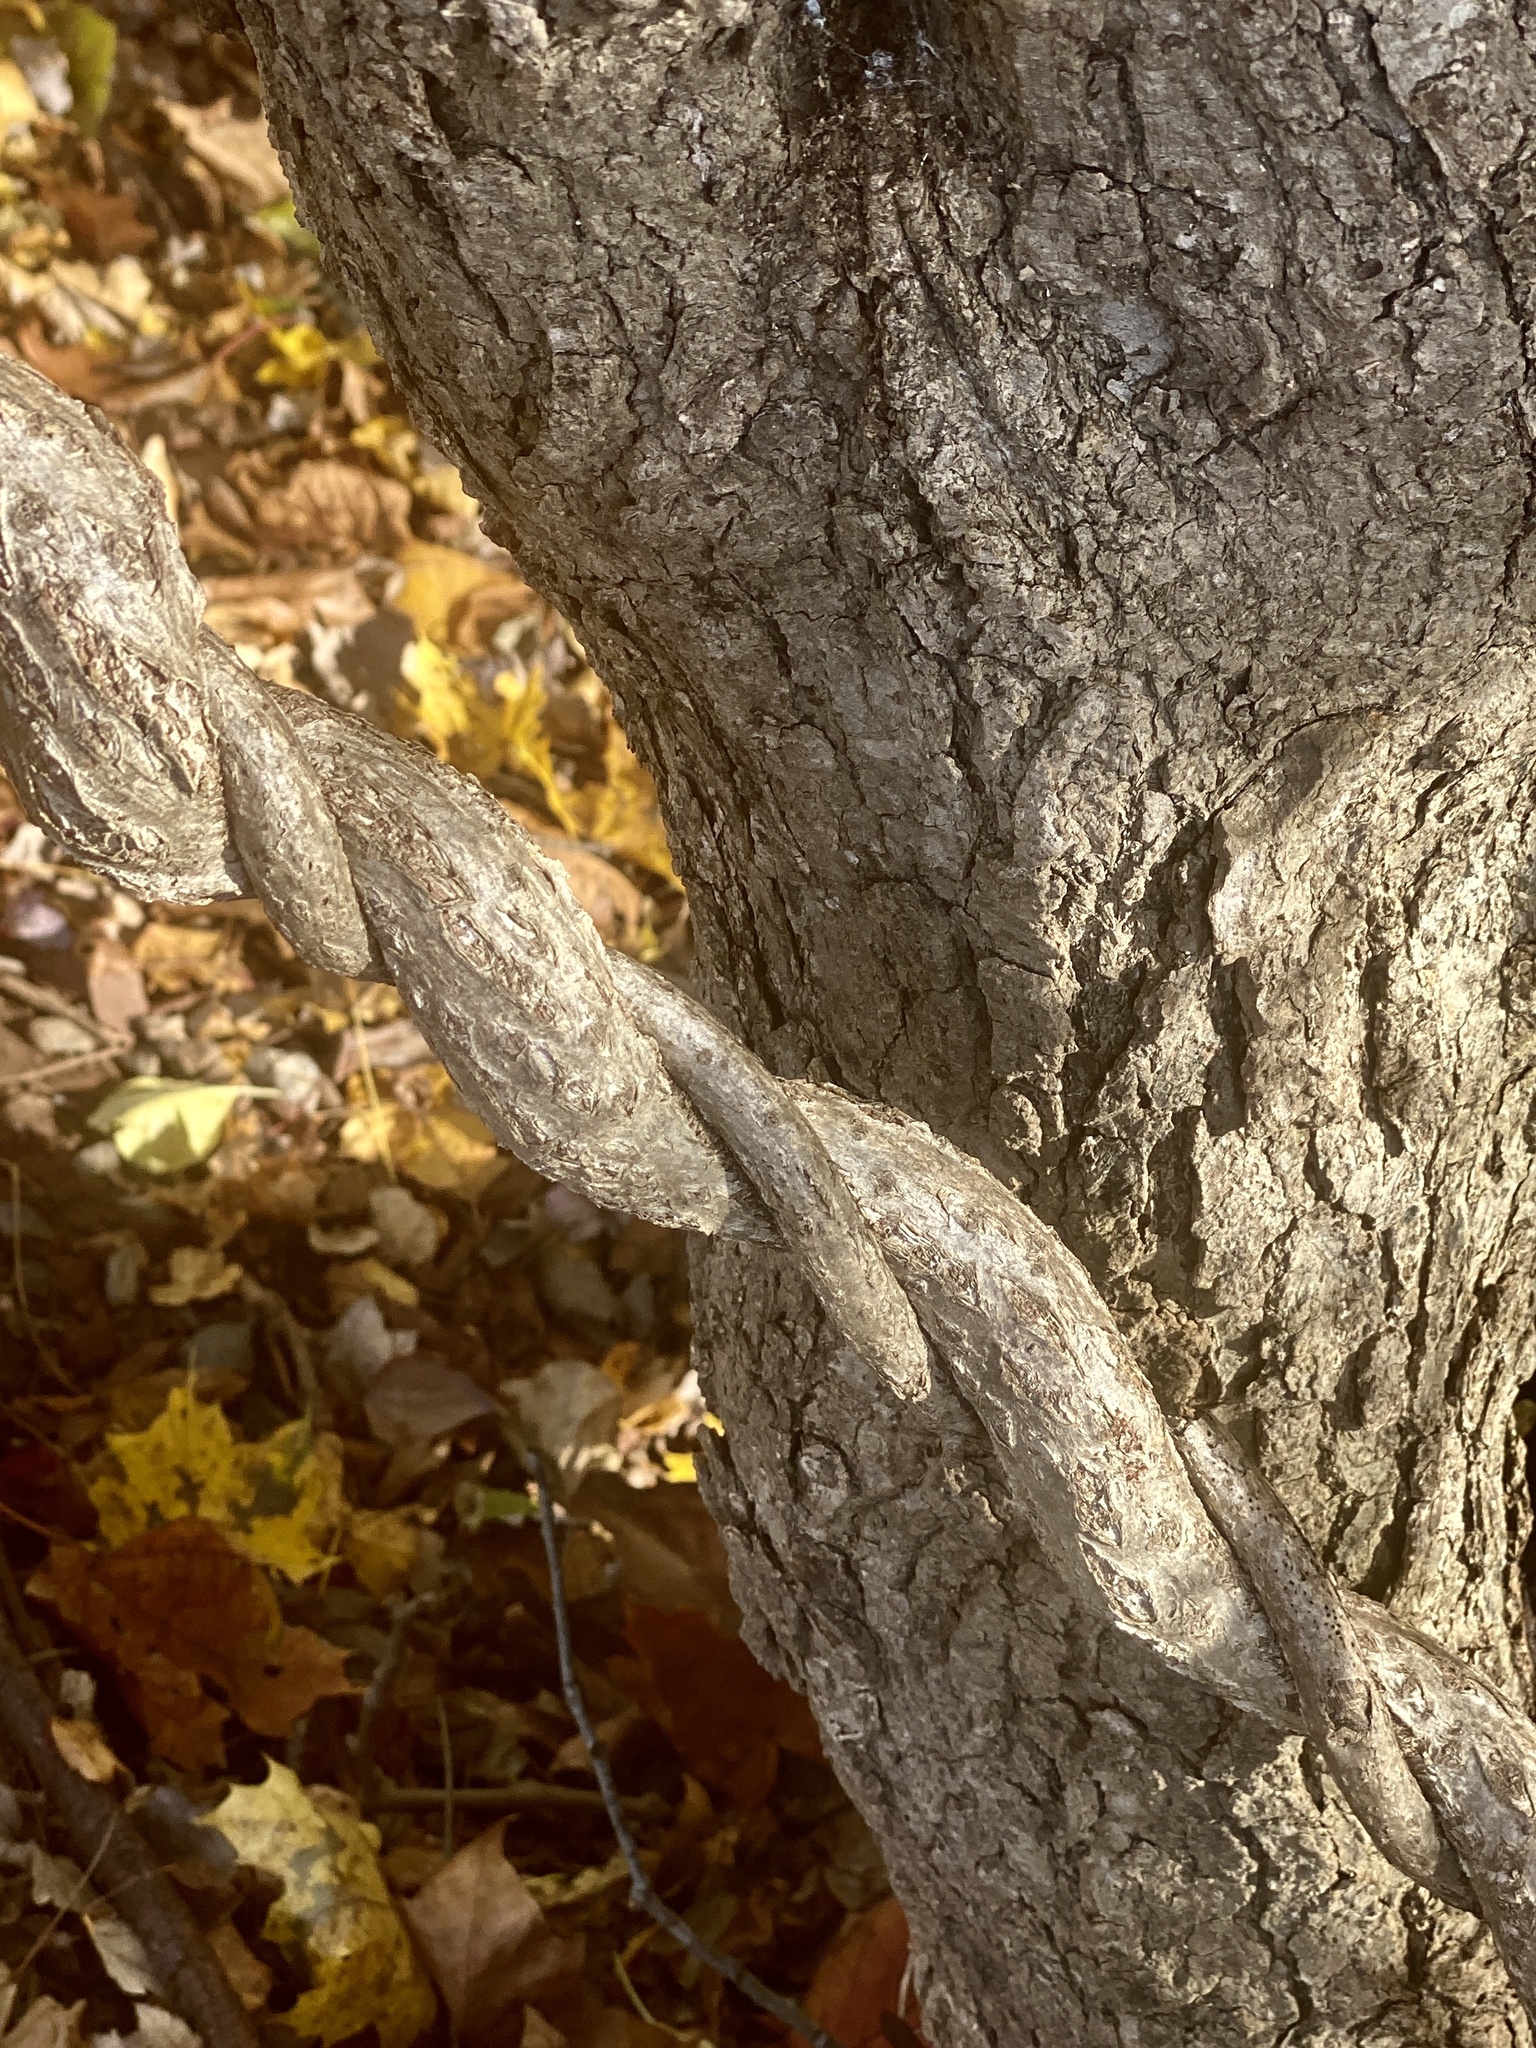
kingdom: Plantae
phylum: Tracheophyta
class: Magnoliopsida
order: Celastrales
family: Celastraceae
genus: Celastrus
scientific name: Celastrus orbiculatus
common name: Oriental bittersweet
